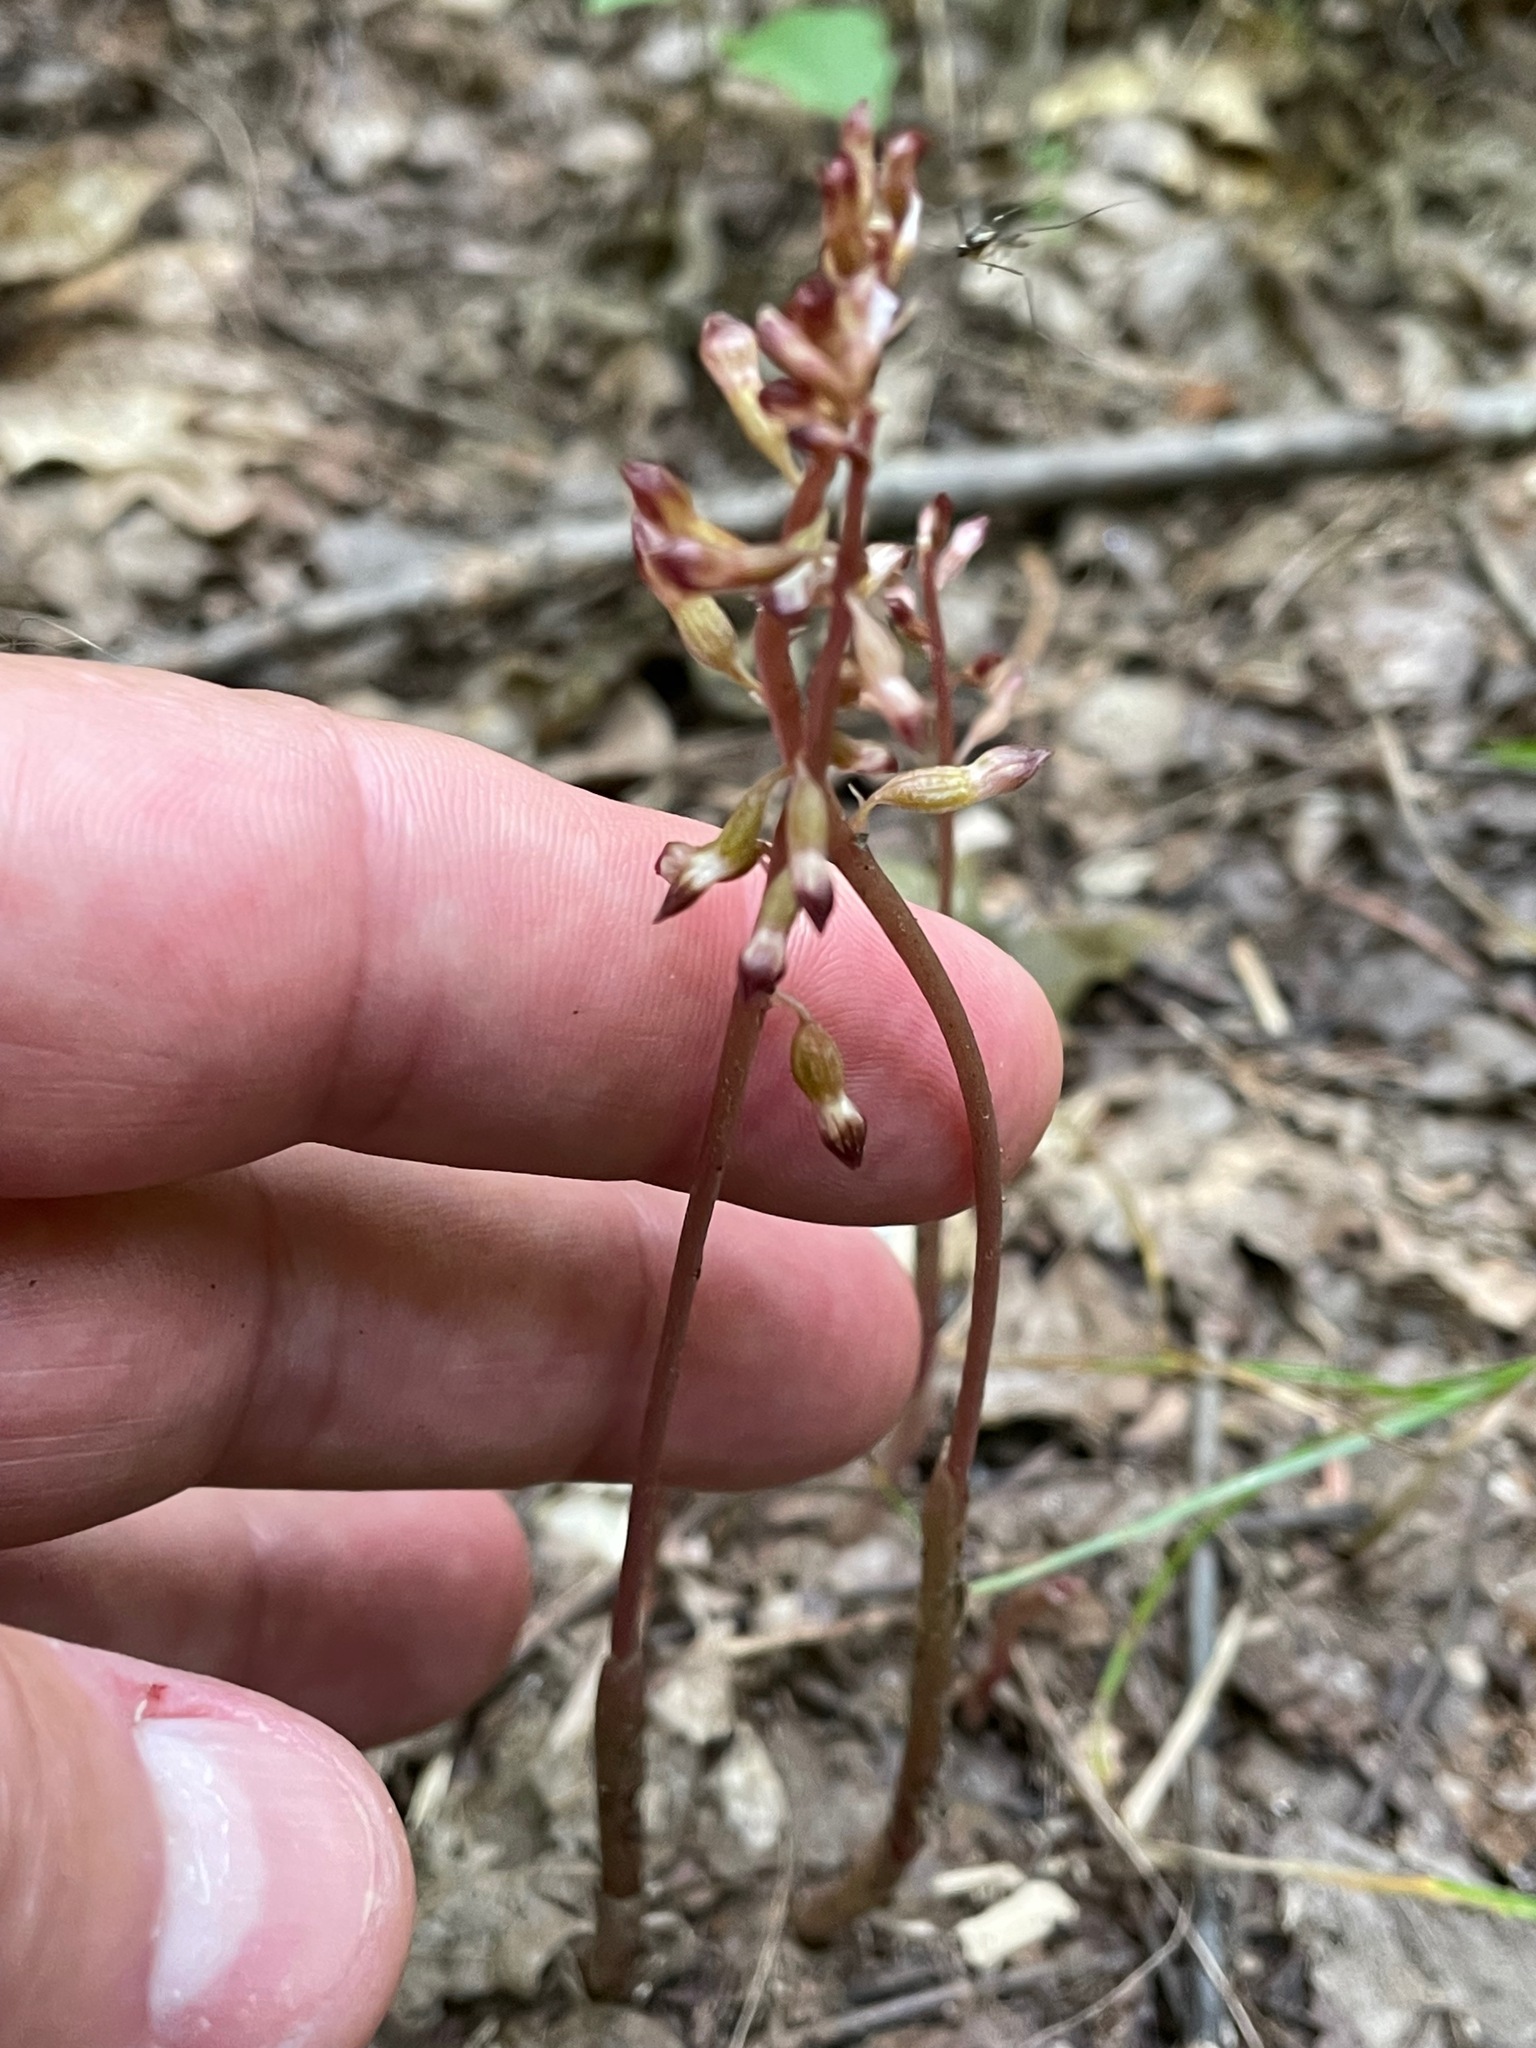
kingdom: Plantae
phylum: Tracheophyta
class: Liliopsida
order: Asparagales
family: Orchidaceae
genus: Corallorhiza
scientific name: Corallorhiza odontorhiza
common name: Autumn coralroot
